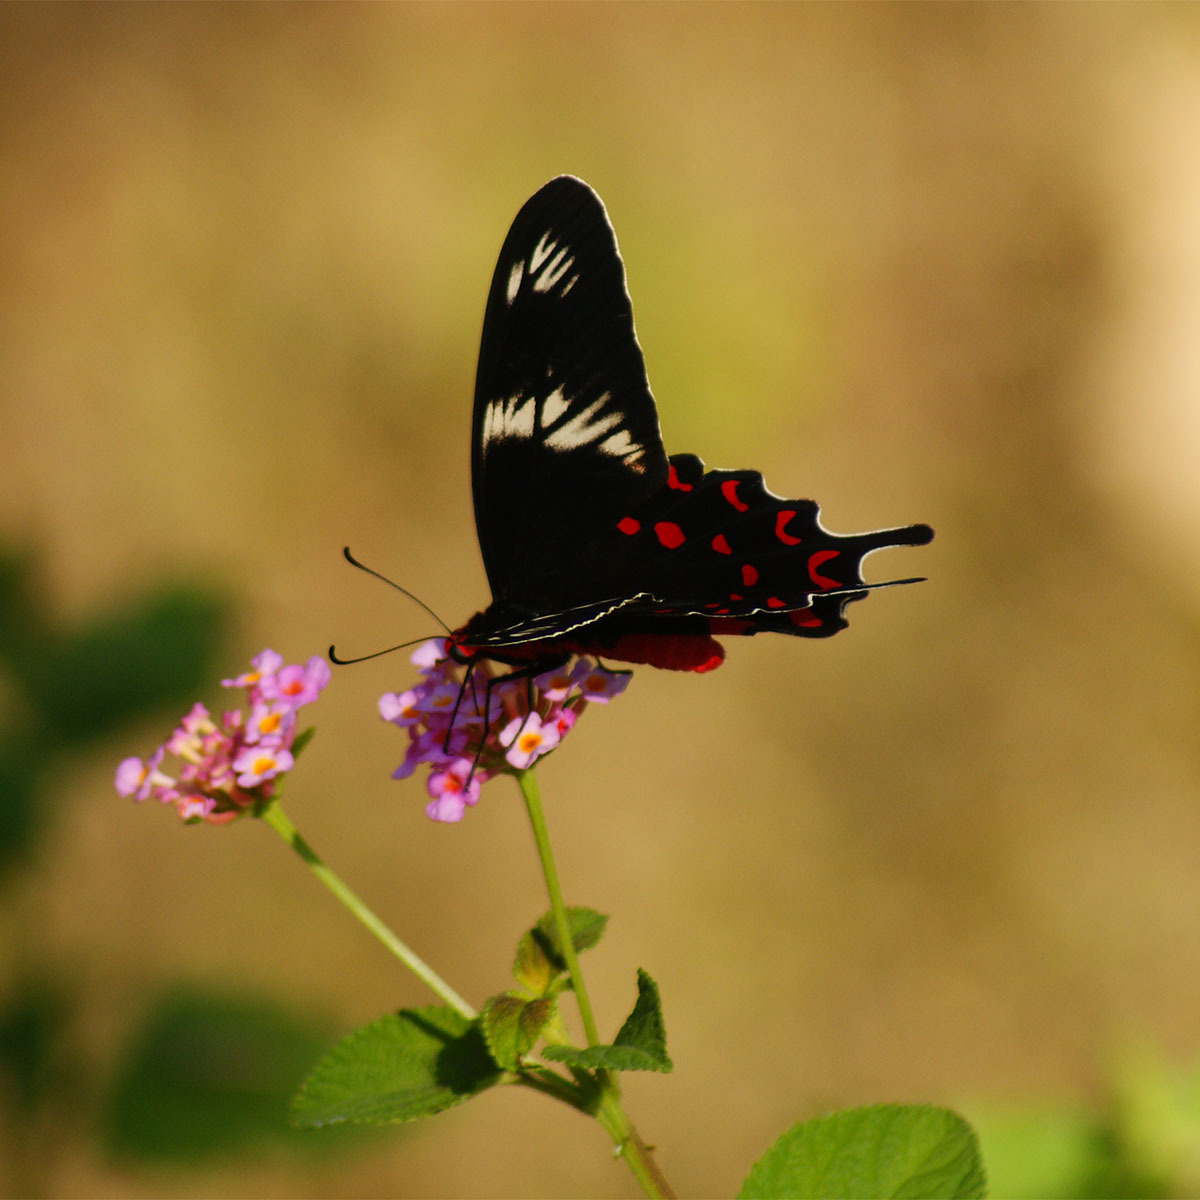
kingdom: Animalia
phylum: Arthropoda
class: Insecta
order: Lepidoptera
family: Papilionidae
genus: Pachliopta
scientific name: Pachliopta hector
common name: Crimson rose
